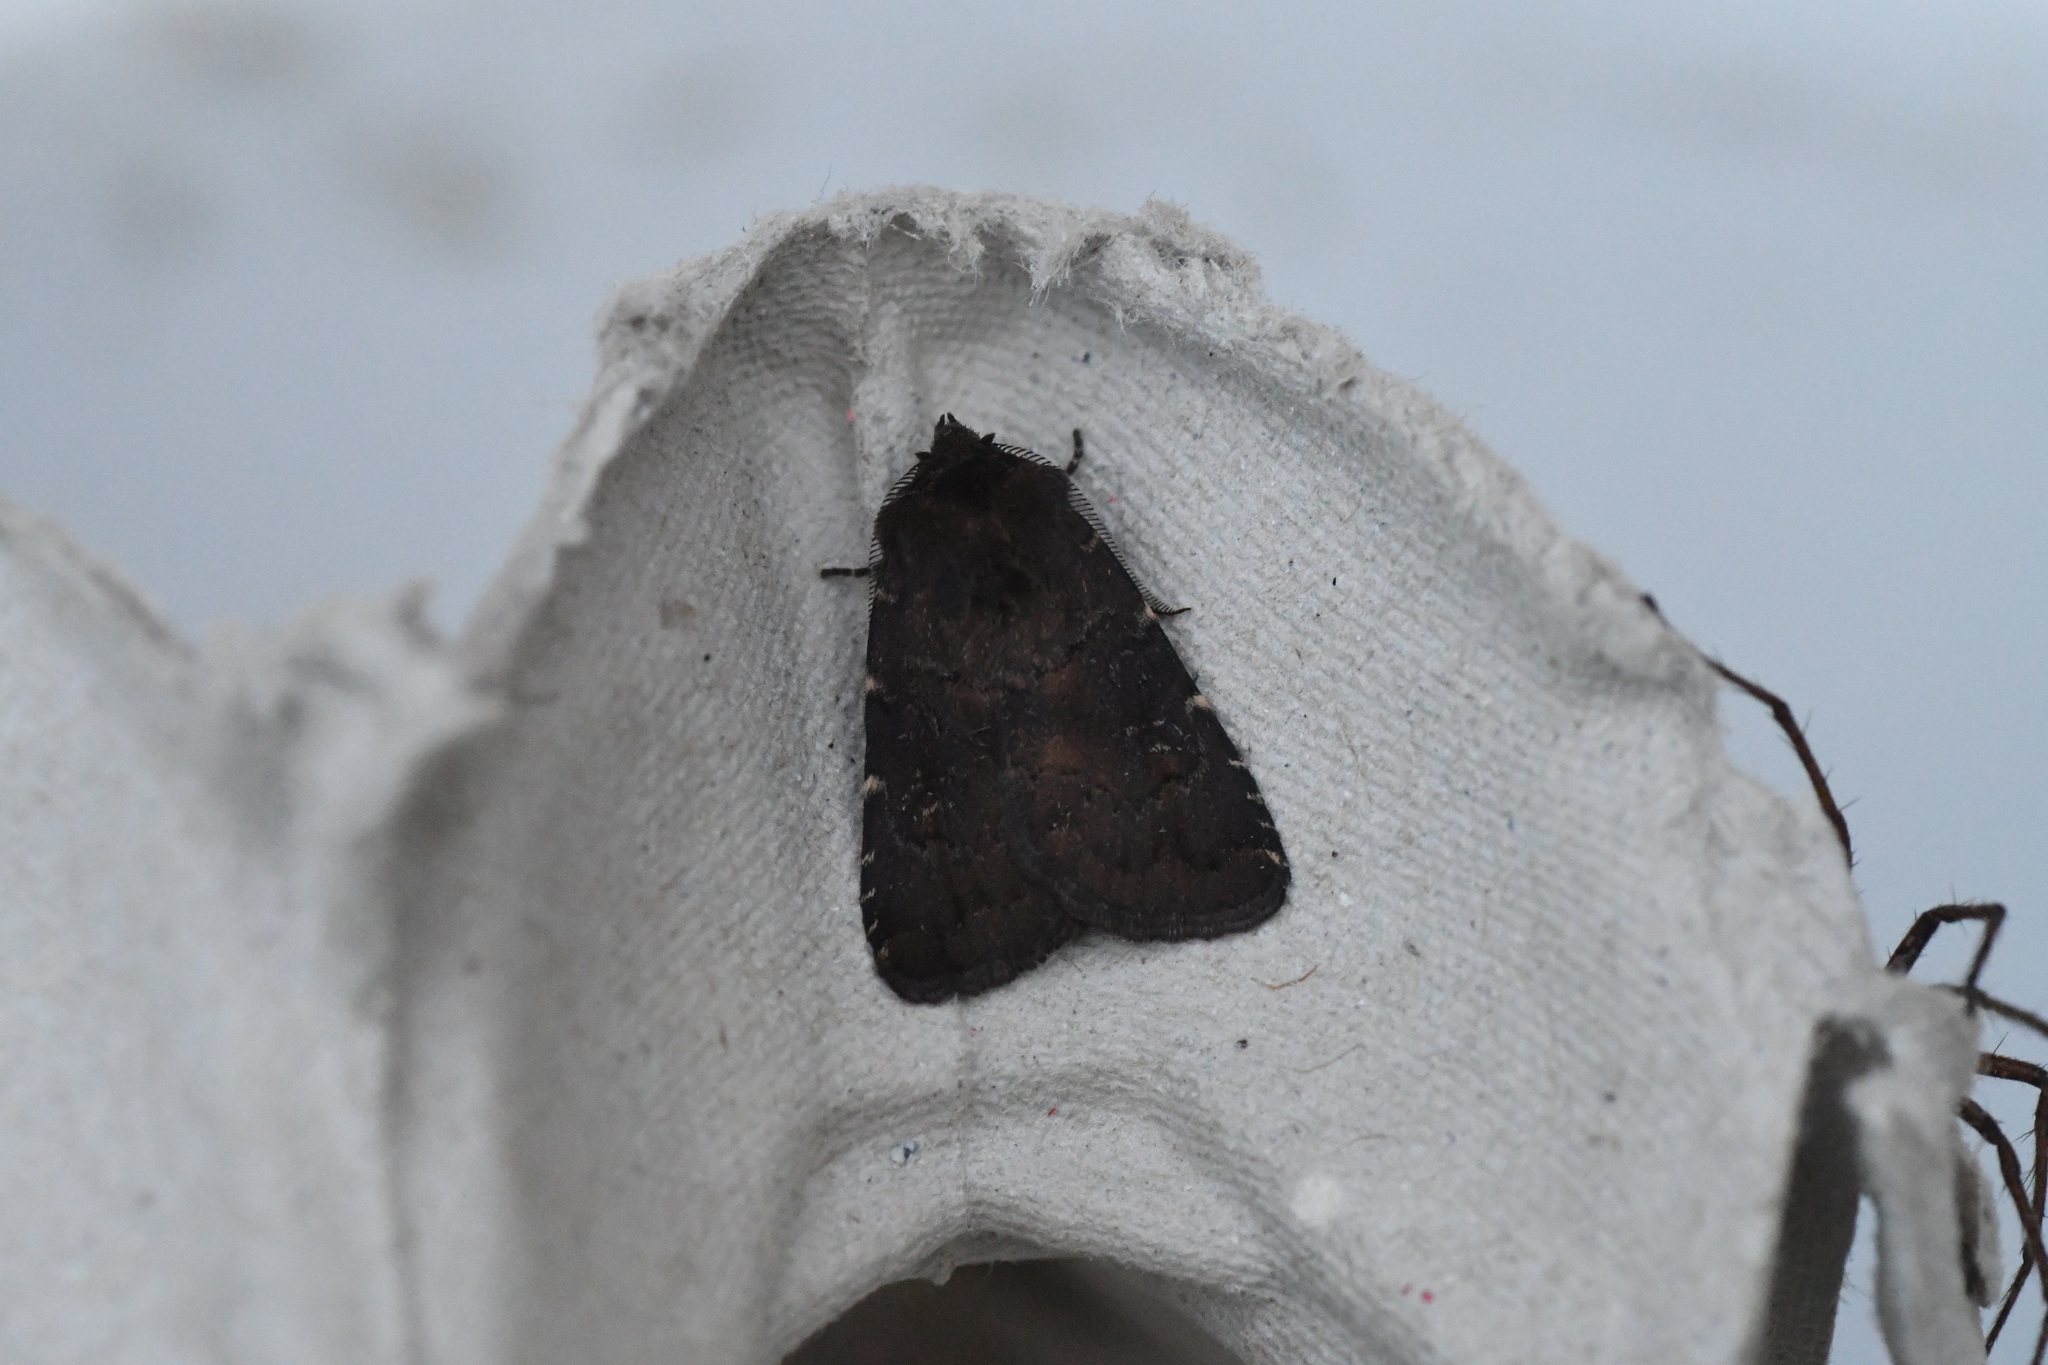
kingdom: Animalia
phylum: Arthropoda
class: Insecta
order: Lepidoptera
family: Noctuidae
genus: Charanyca
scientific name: Charanyca ferruginea
